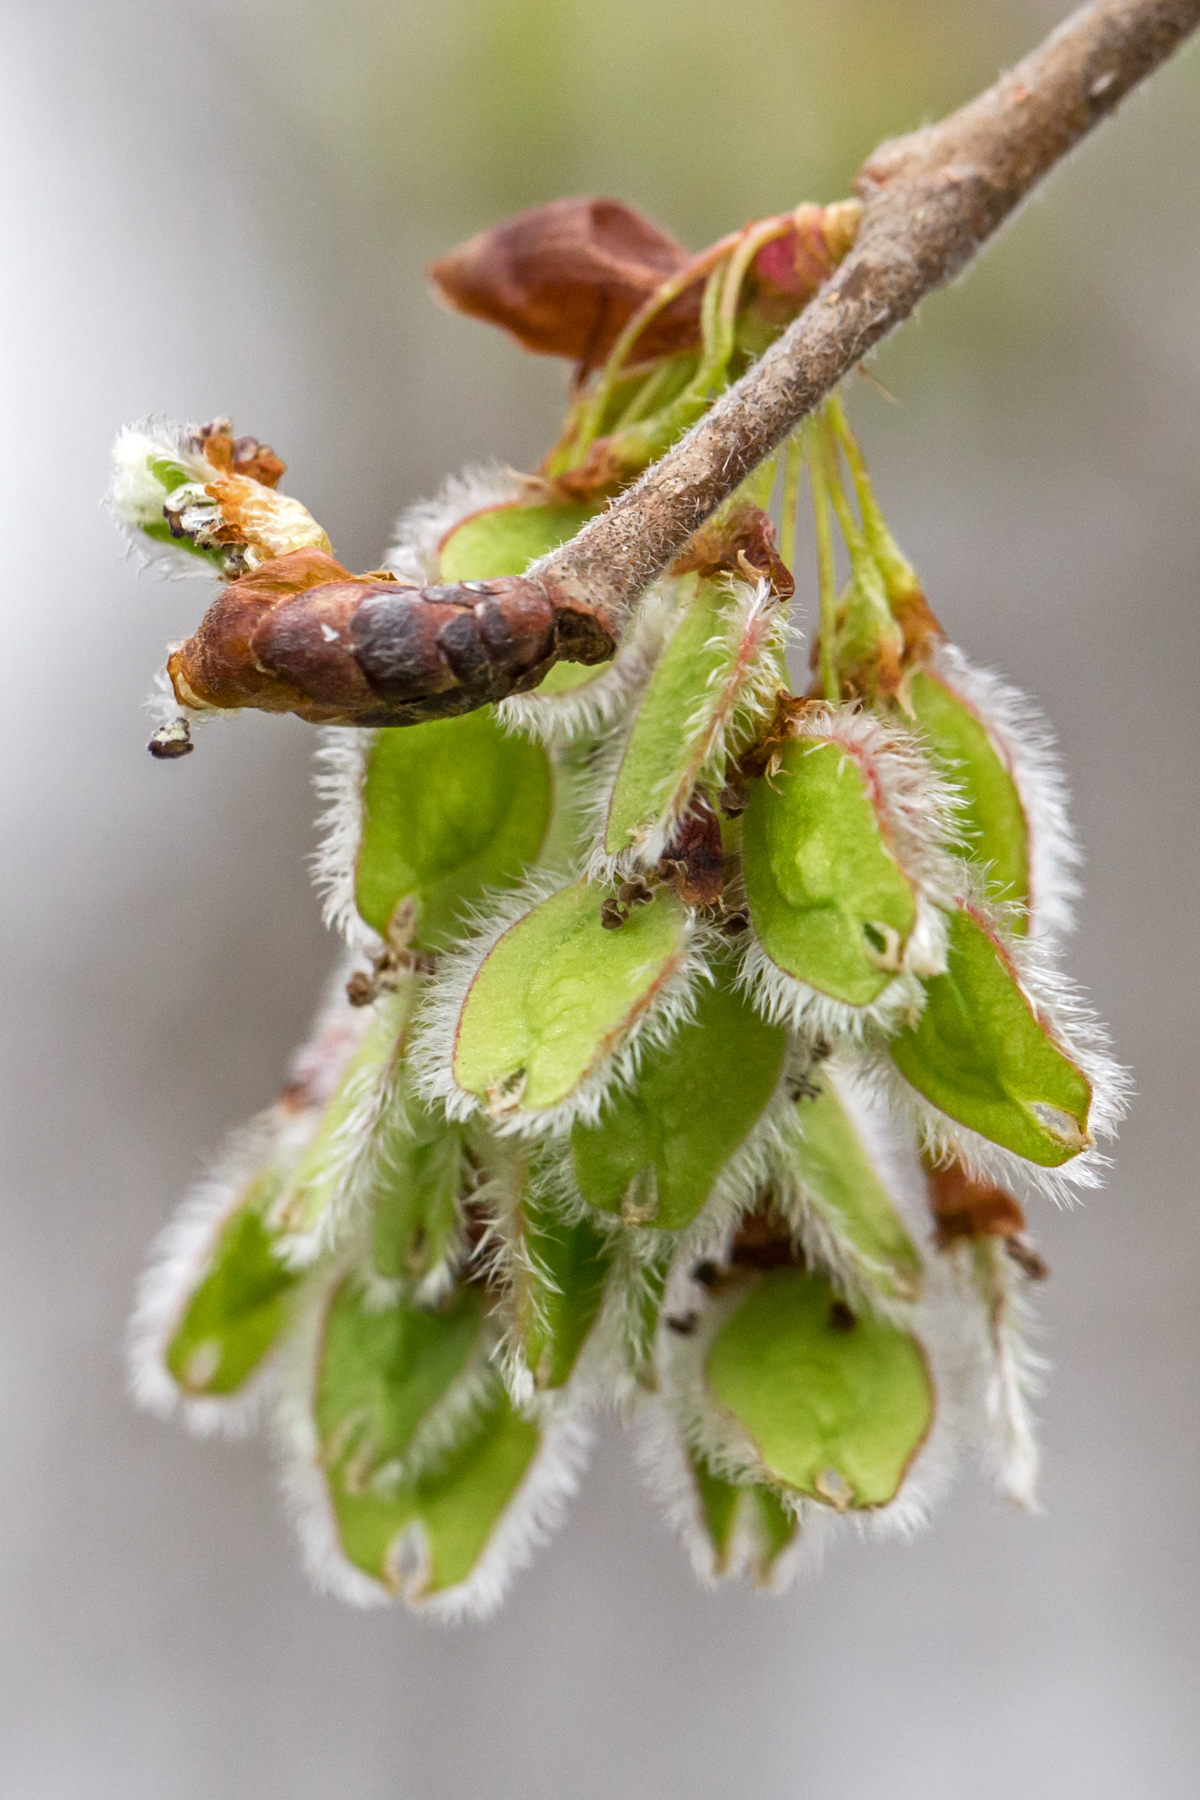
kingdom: Plantae
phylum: Tracheophyta
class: Magnoliopsida
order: Rosales
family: Ulmaceae
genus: Ulmus
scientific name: Ulmus americana
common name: American elm
